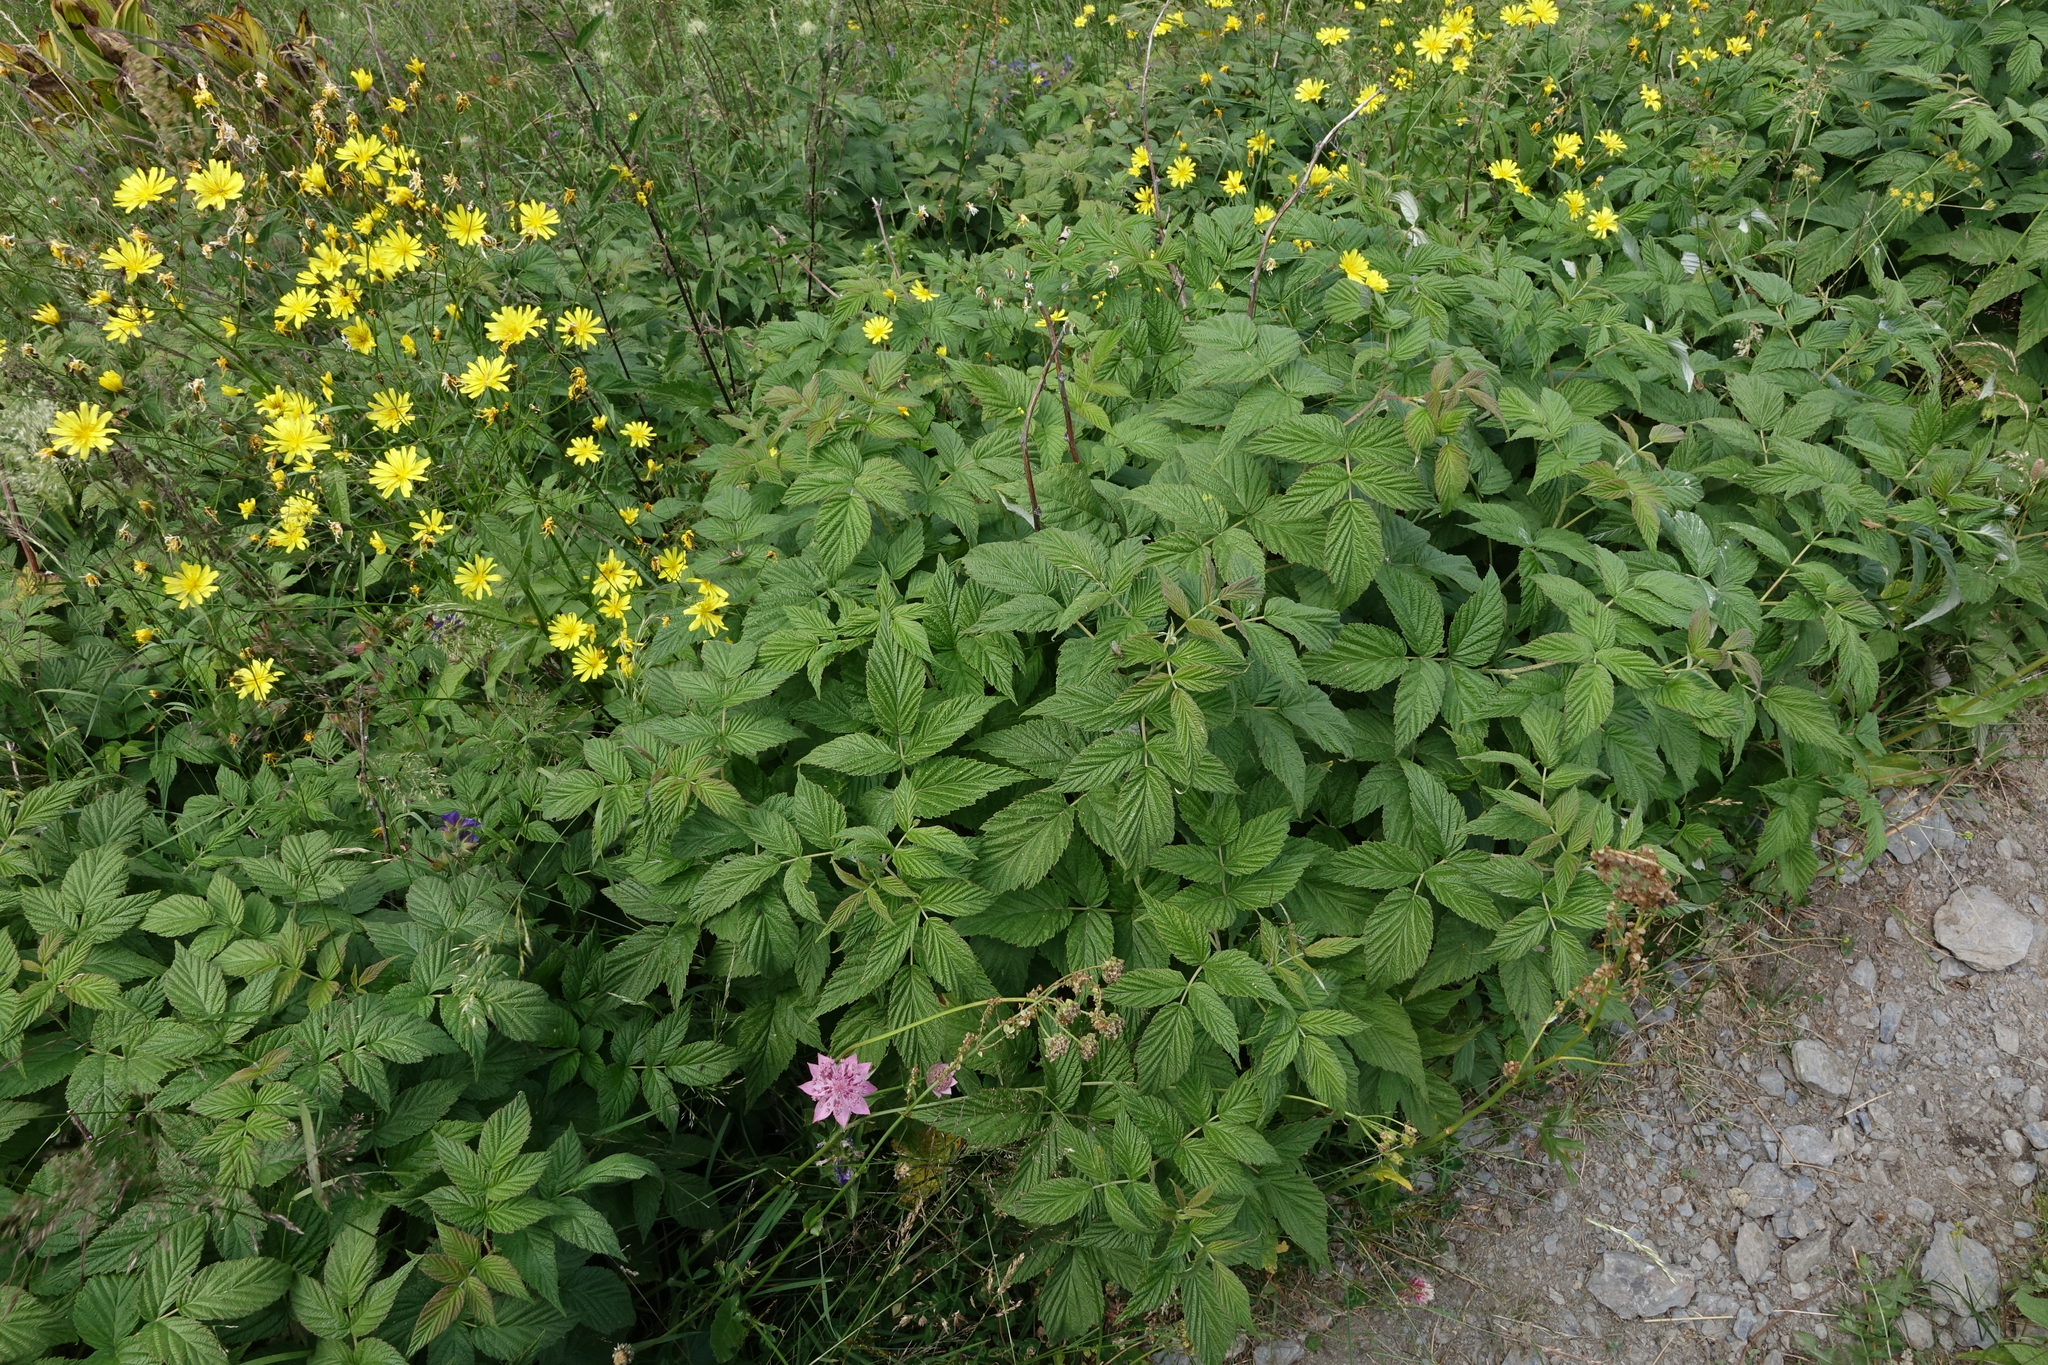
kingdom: Plantae
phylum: Tracheophyta
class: Magnoliopsida
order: Rosales
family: Rosaceae
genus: Rubus
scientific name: Rubus idaeus
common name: Raspberry
